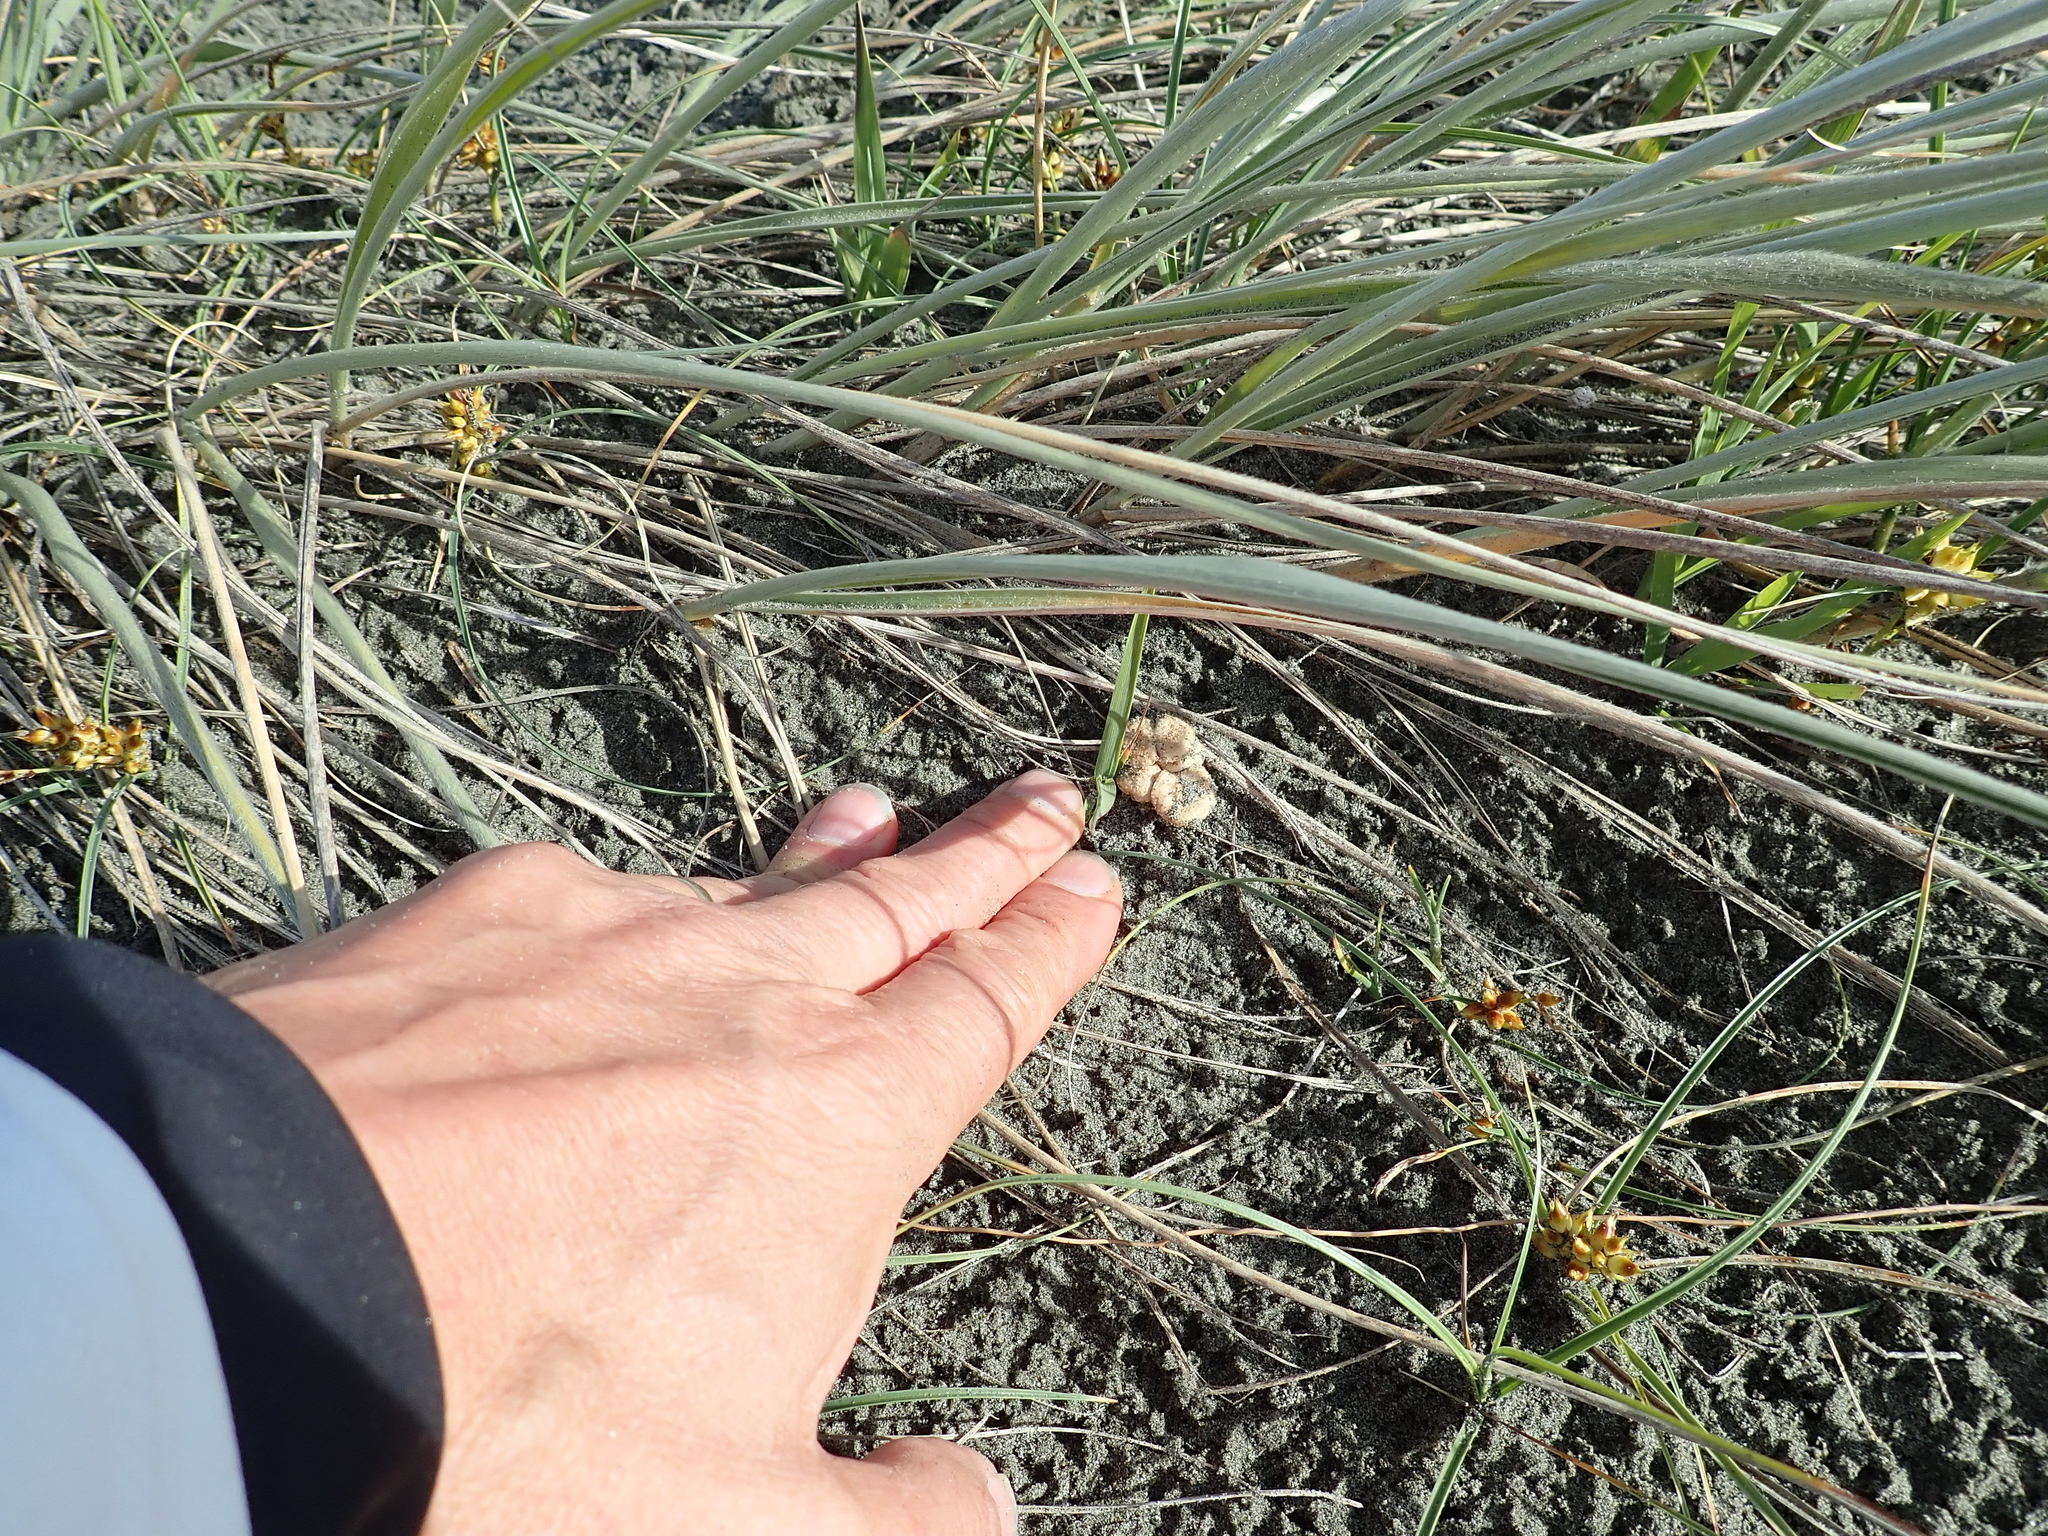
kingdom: Fungi
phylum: Basidiomycota
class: Agaricomycetes
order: Agaricales
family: Marasmiaceae
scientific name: Marasmiaceae
